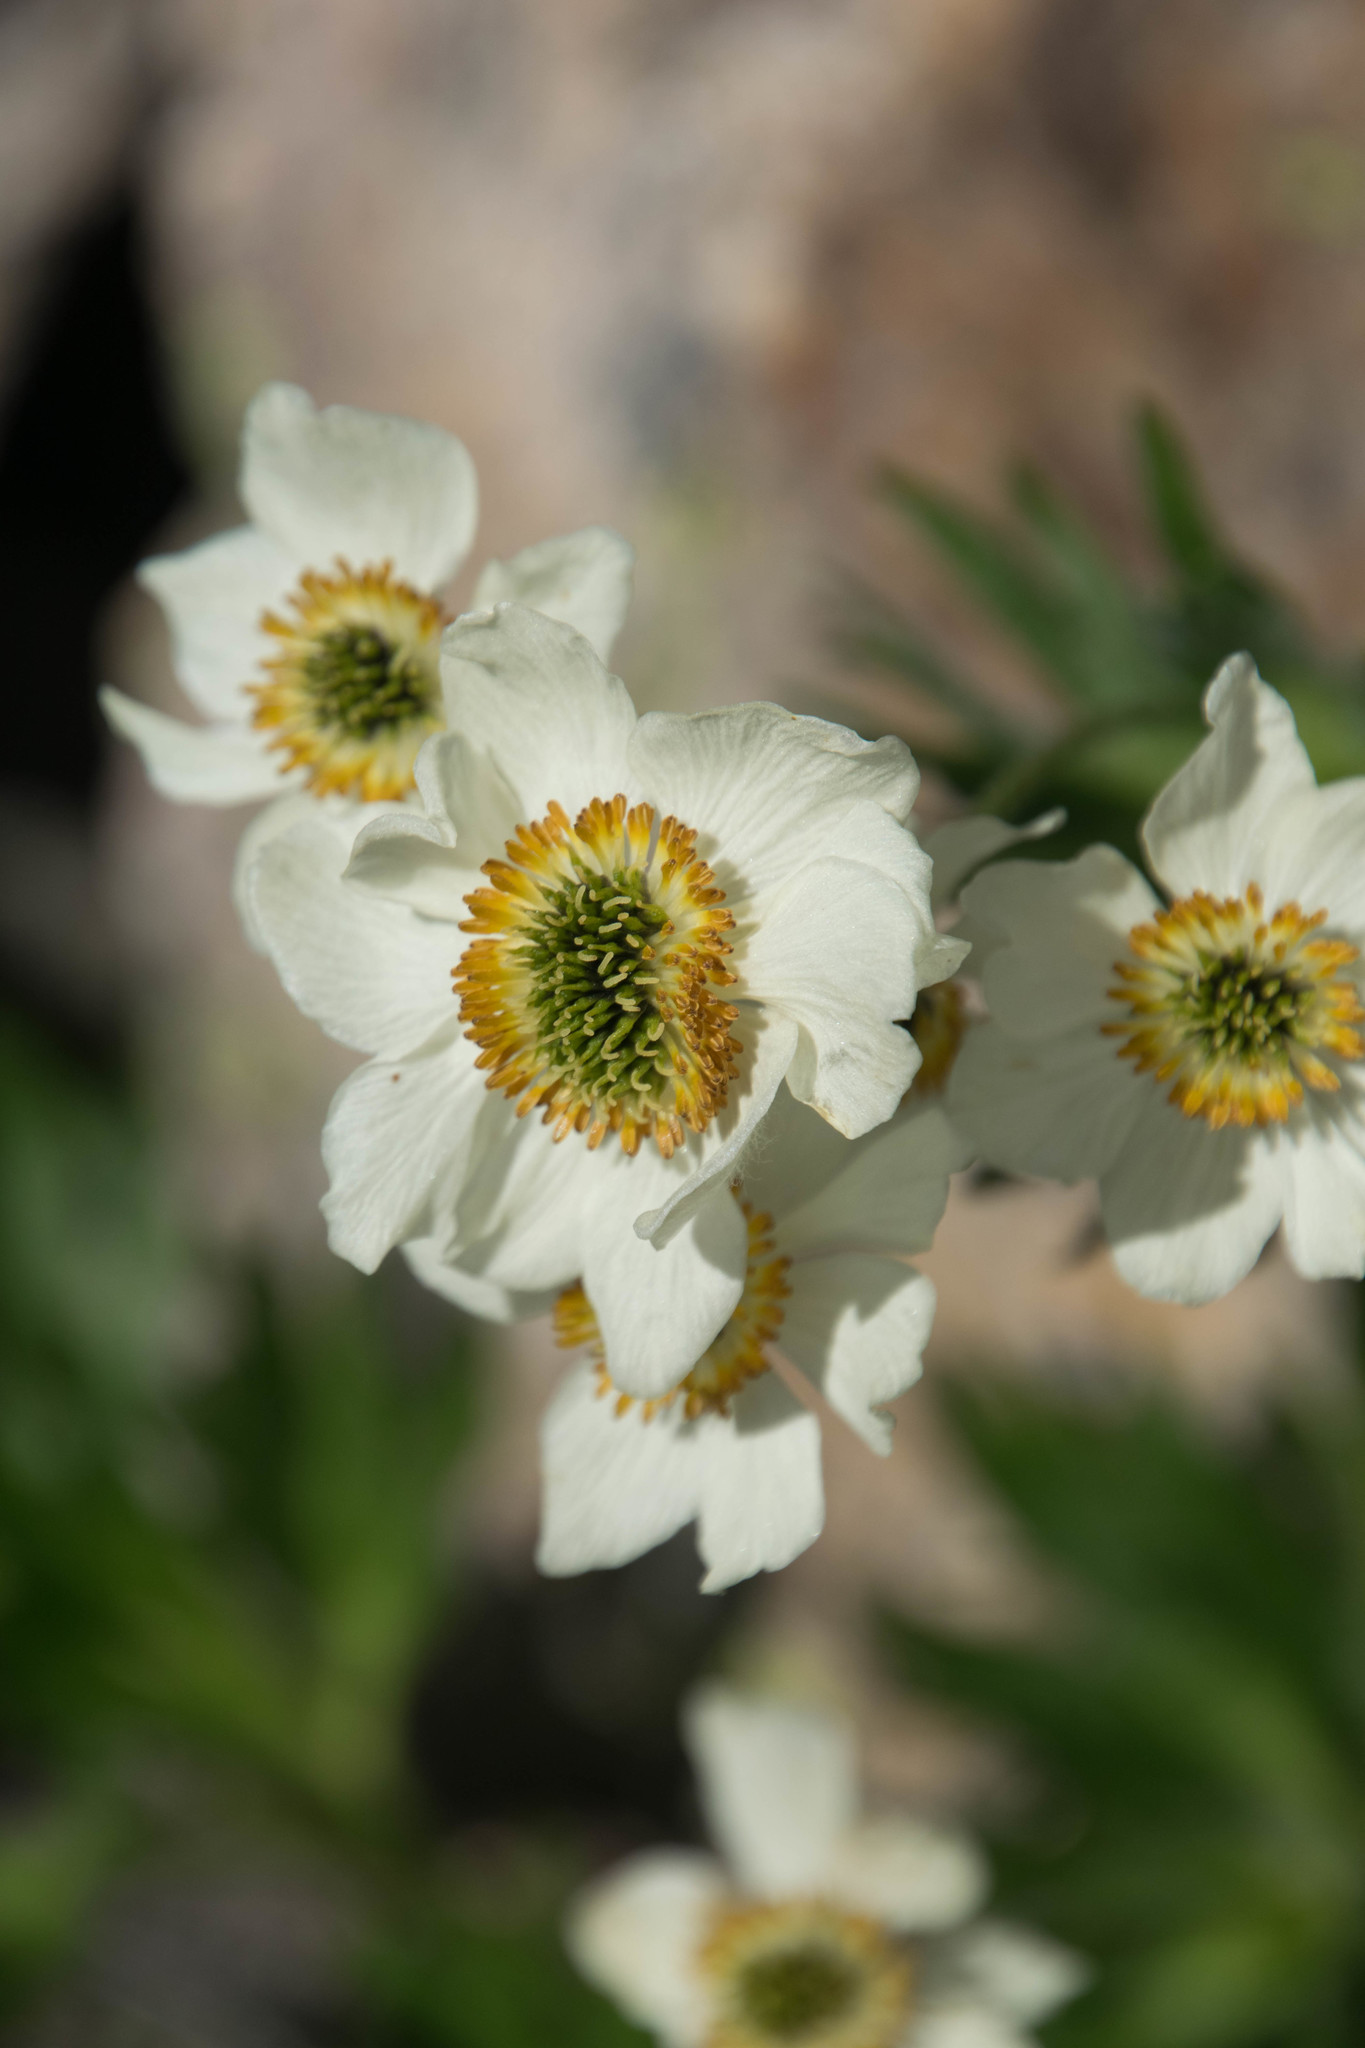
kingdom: Plantae
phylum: Tracheophyta
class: Magnoliopsida
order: Ranunculales
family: Ranunculaceae
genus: Anemonastrum
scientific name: Anemonastrum narcissiflorum
